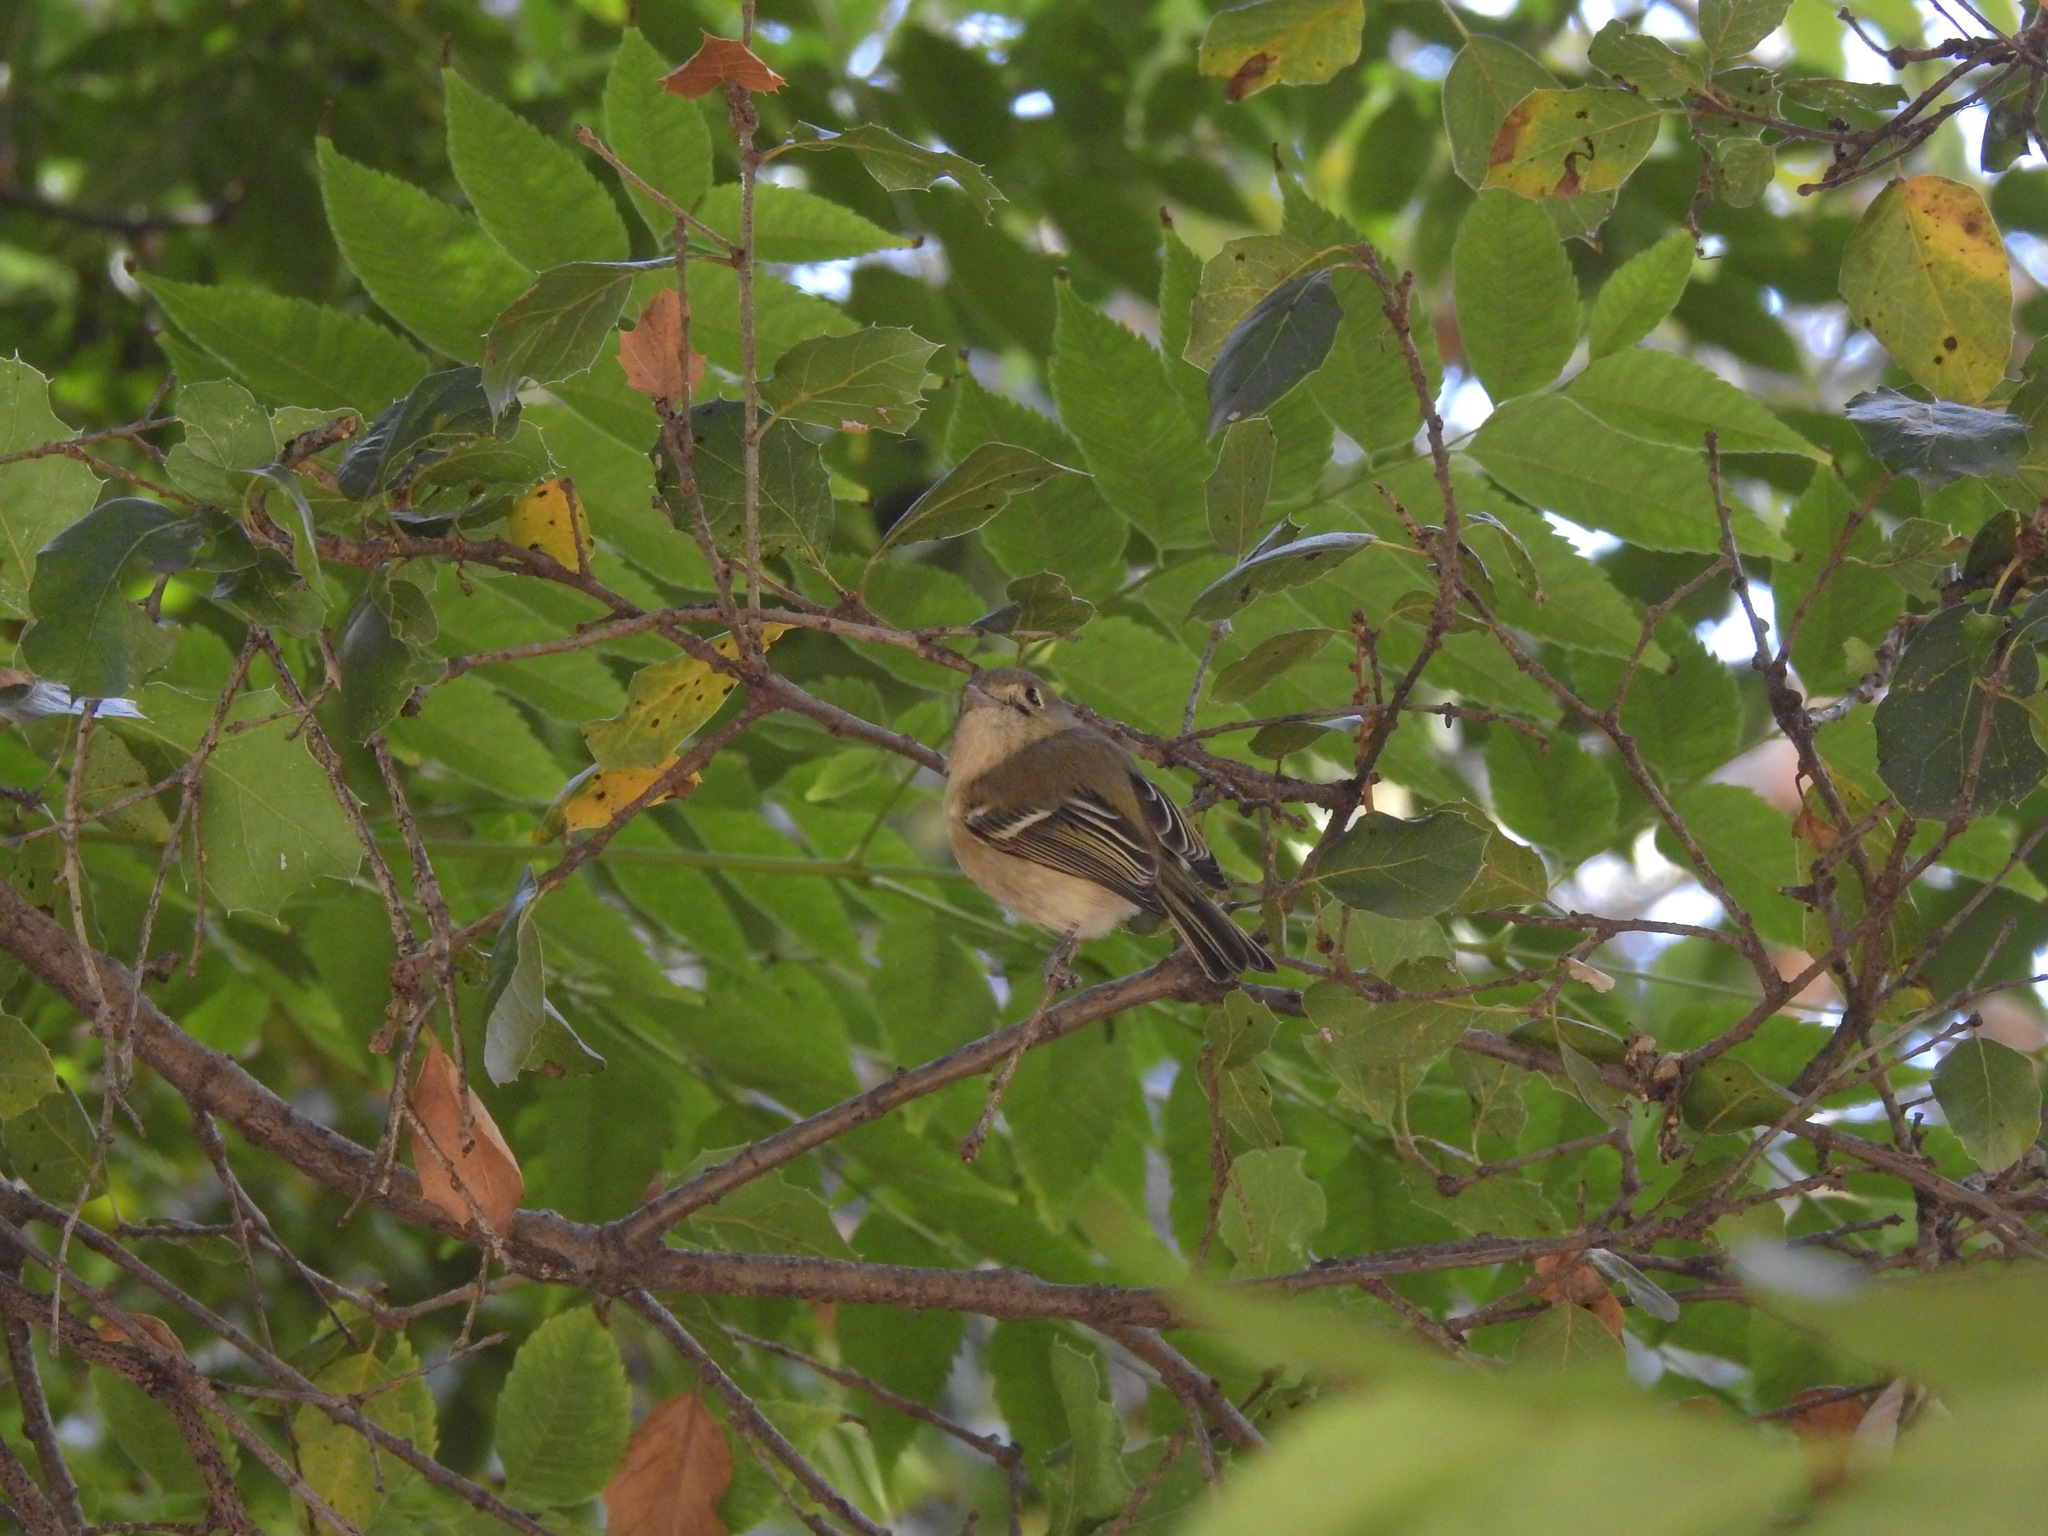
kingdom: Animalia
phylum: Chordata
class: Aves
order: Passeriformes
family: Vireonidae
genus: Vireo
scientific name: Vireo huttoni
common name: Hutton's vireo
